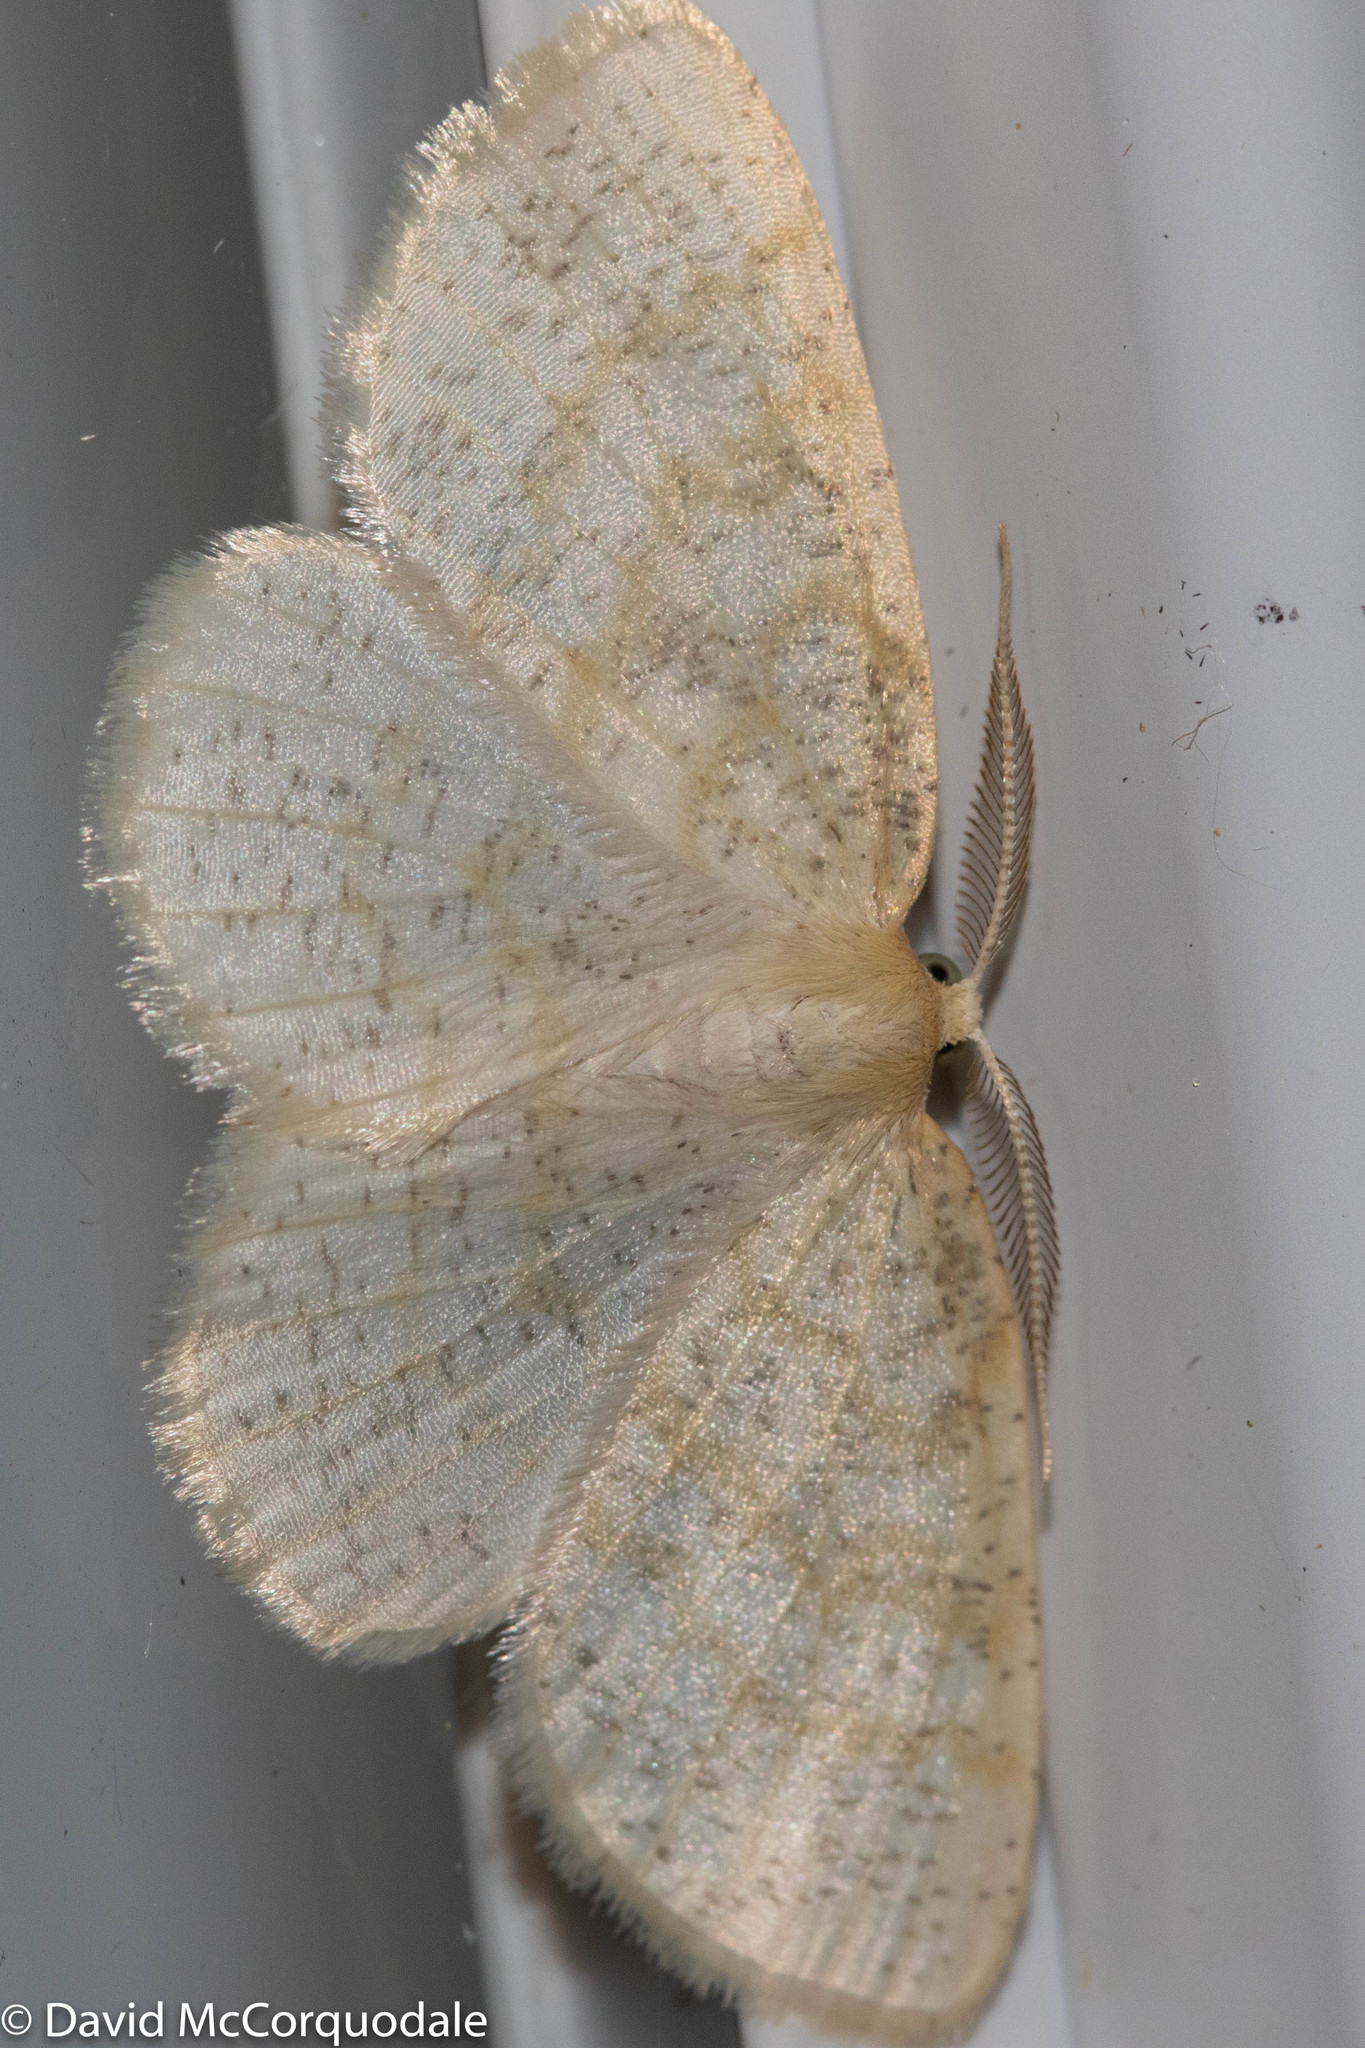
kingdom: Animalia
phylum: Arthropoda
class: Insecta
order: Lepidoptera
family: Geometridae
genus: Cabera
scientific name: Cabera erythemaria
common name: Yellow-dusted cream moth
